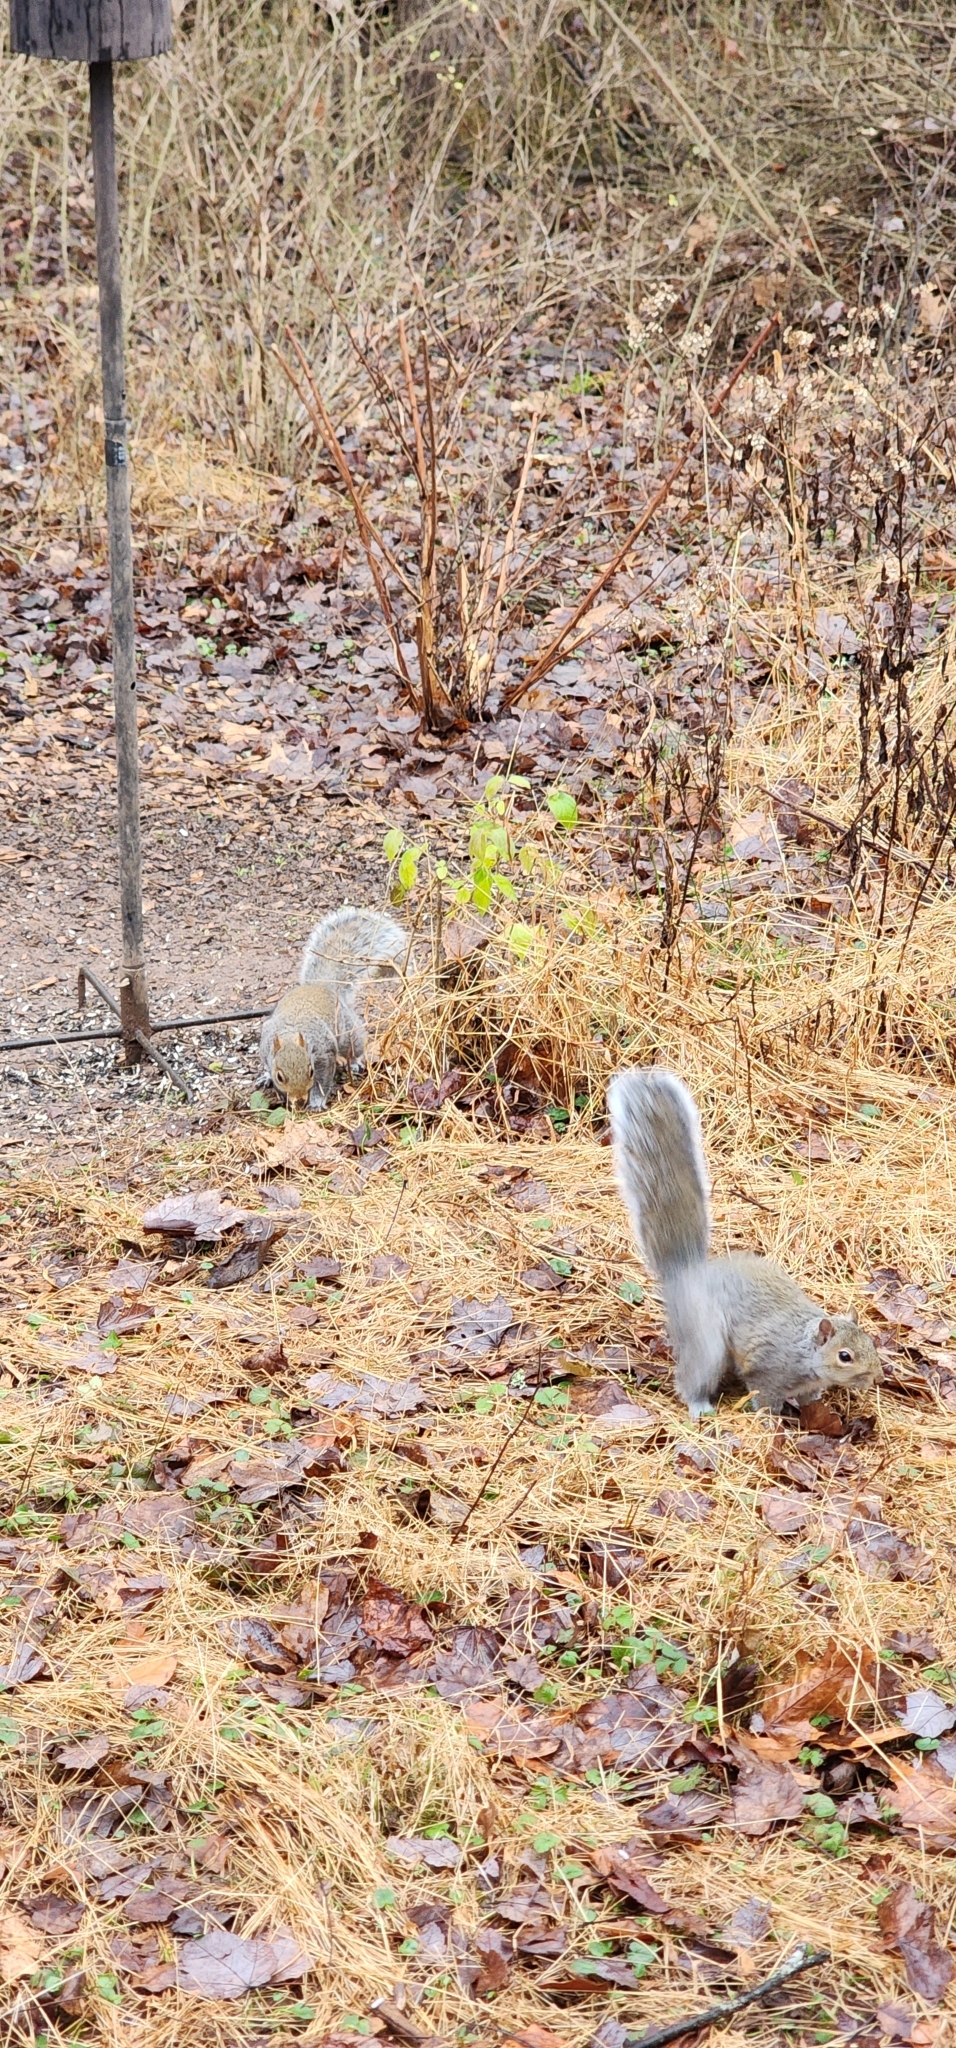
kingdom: Animalia
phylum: Chordata
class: Mammalia
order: Rodentia
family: Sciuridae
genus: Sciurus
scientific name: Sciurus carolinensis
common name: Eastern gray squirrel
